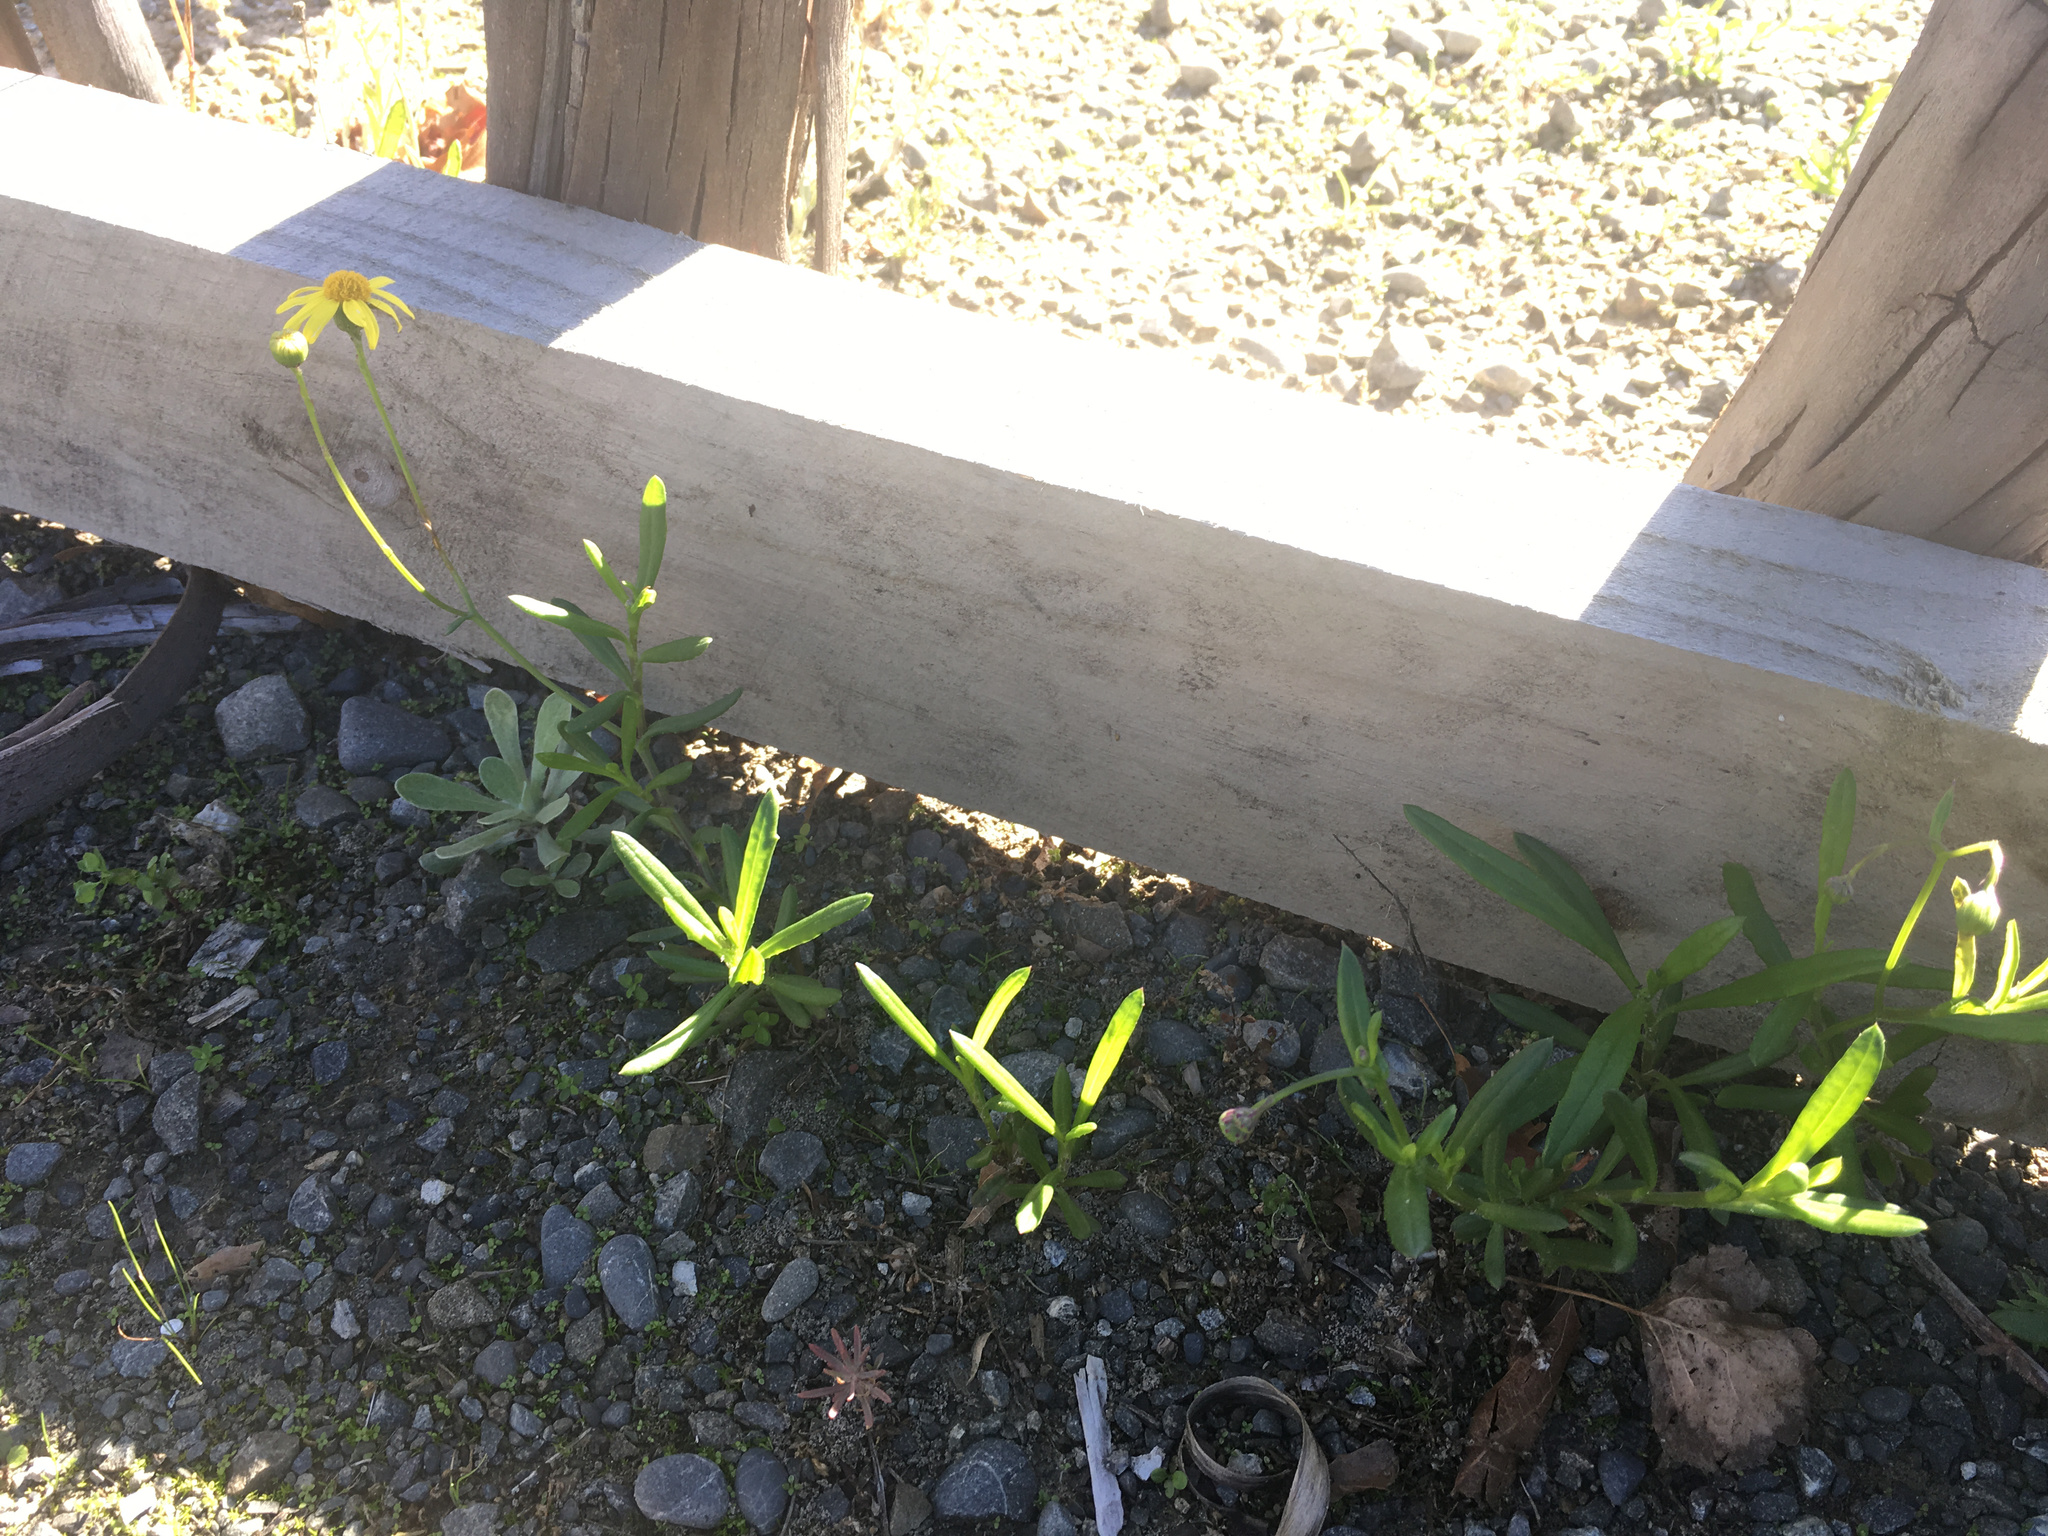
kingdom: Plantae
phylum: Tracheophyta
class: Magnoliopsida
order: Asterales
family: Asteraceae
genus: Senecio
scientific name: Senecio skirrhodon
